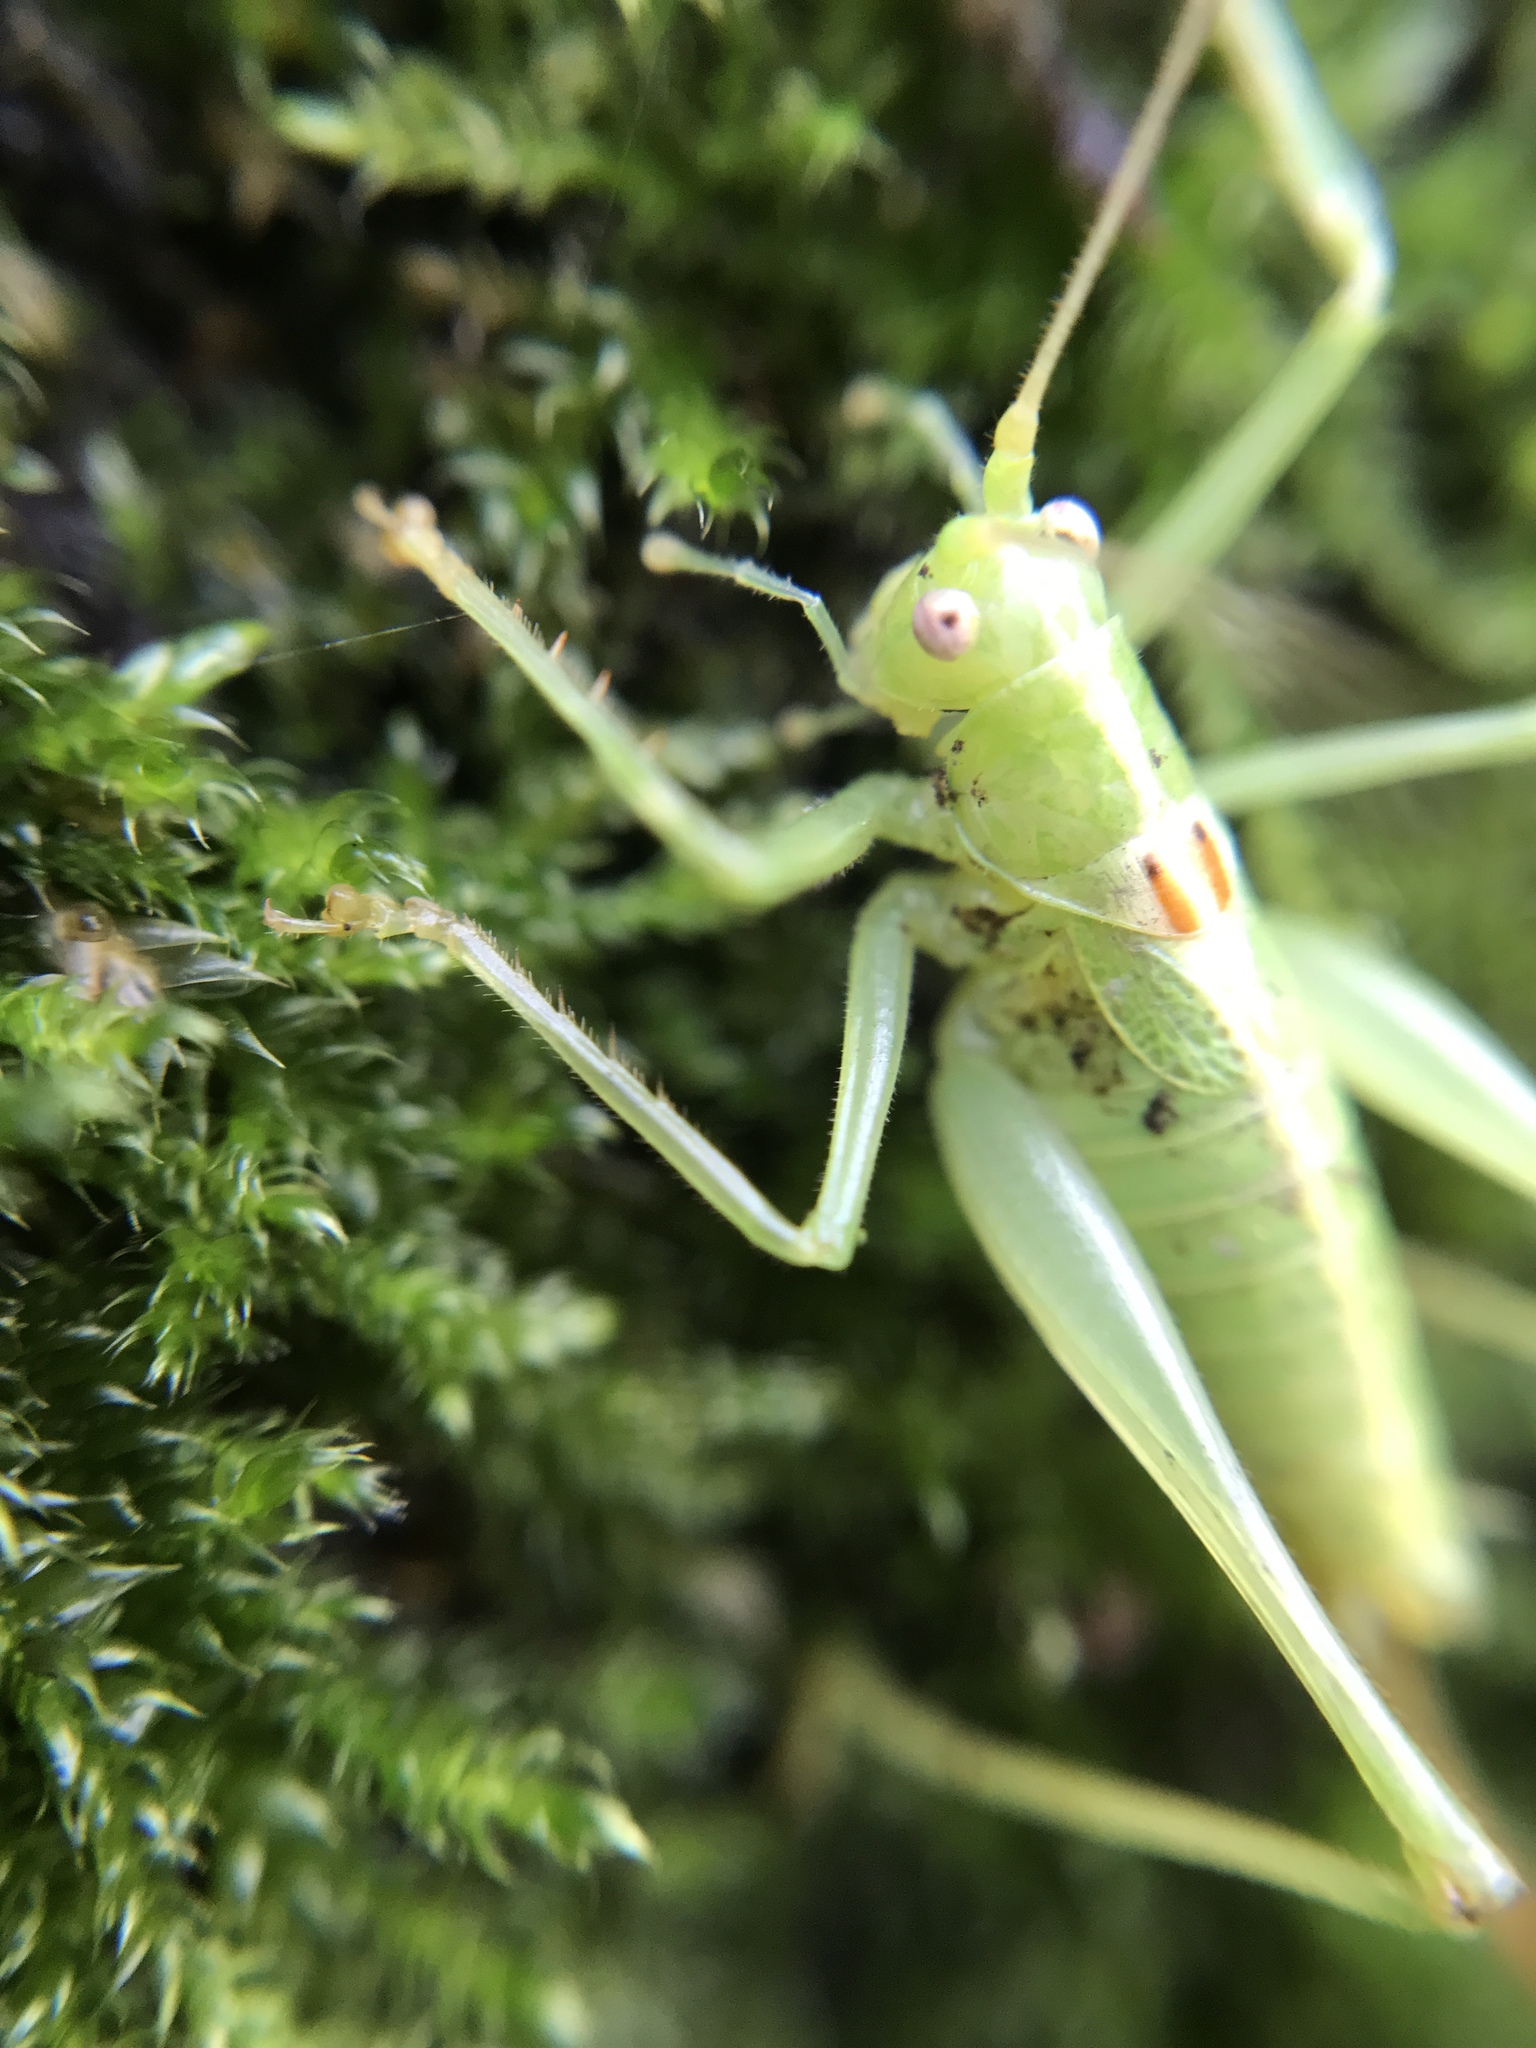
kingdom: Animalia
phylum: Arthropoda
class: Insecta
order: Orthoptera
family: Tettigoniidae
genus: Meconema
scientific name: Meconema meridionale
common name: Southern oak bush-cricket
